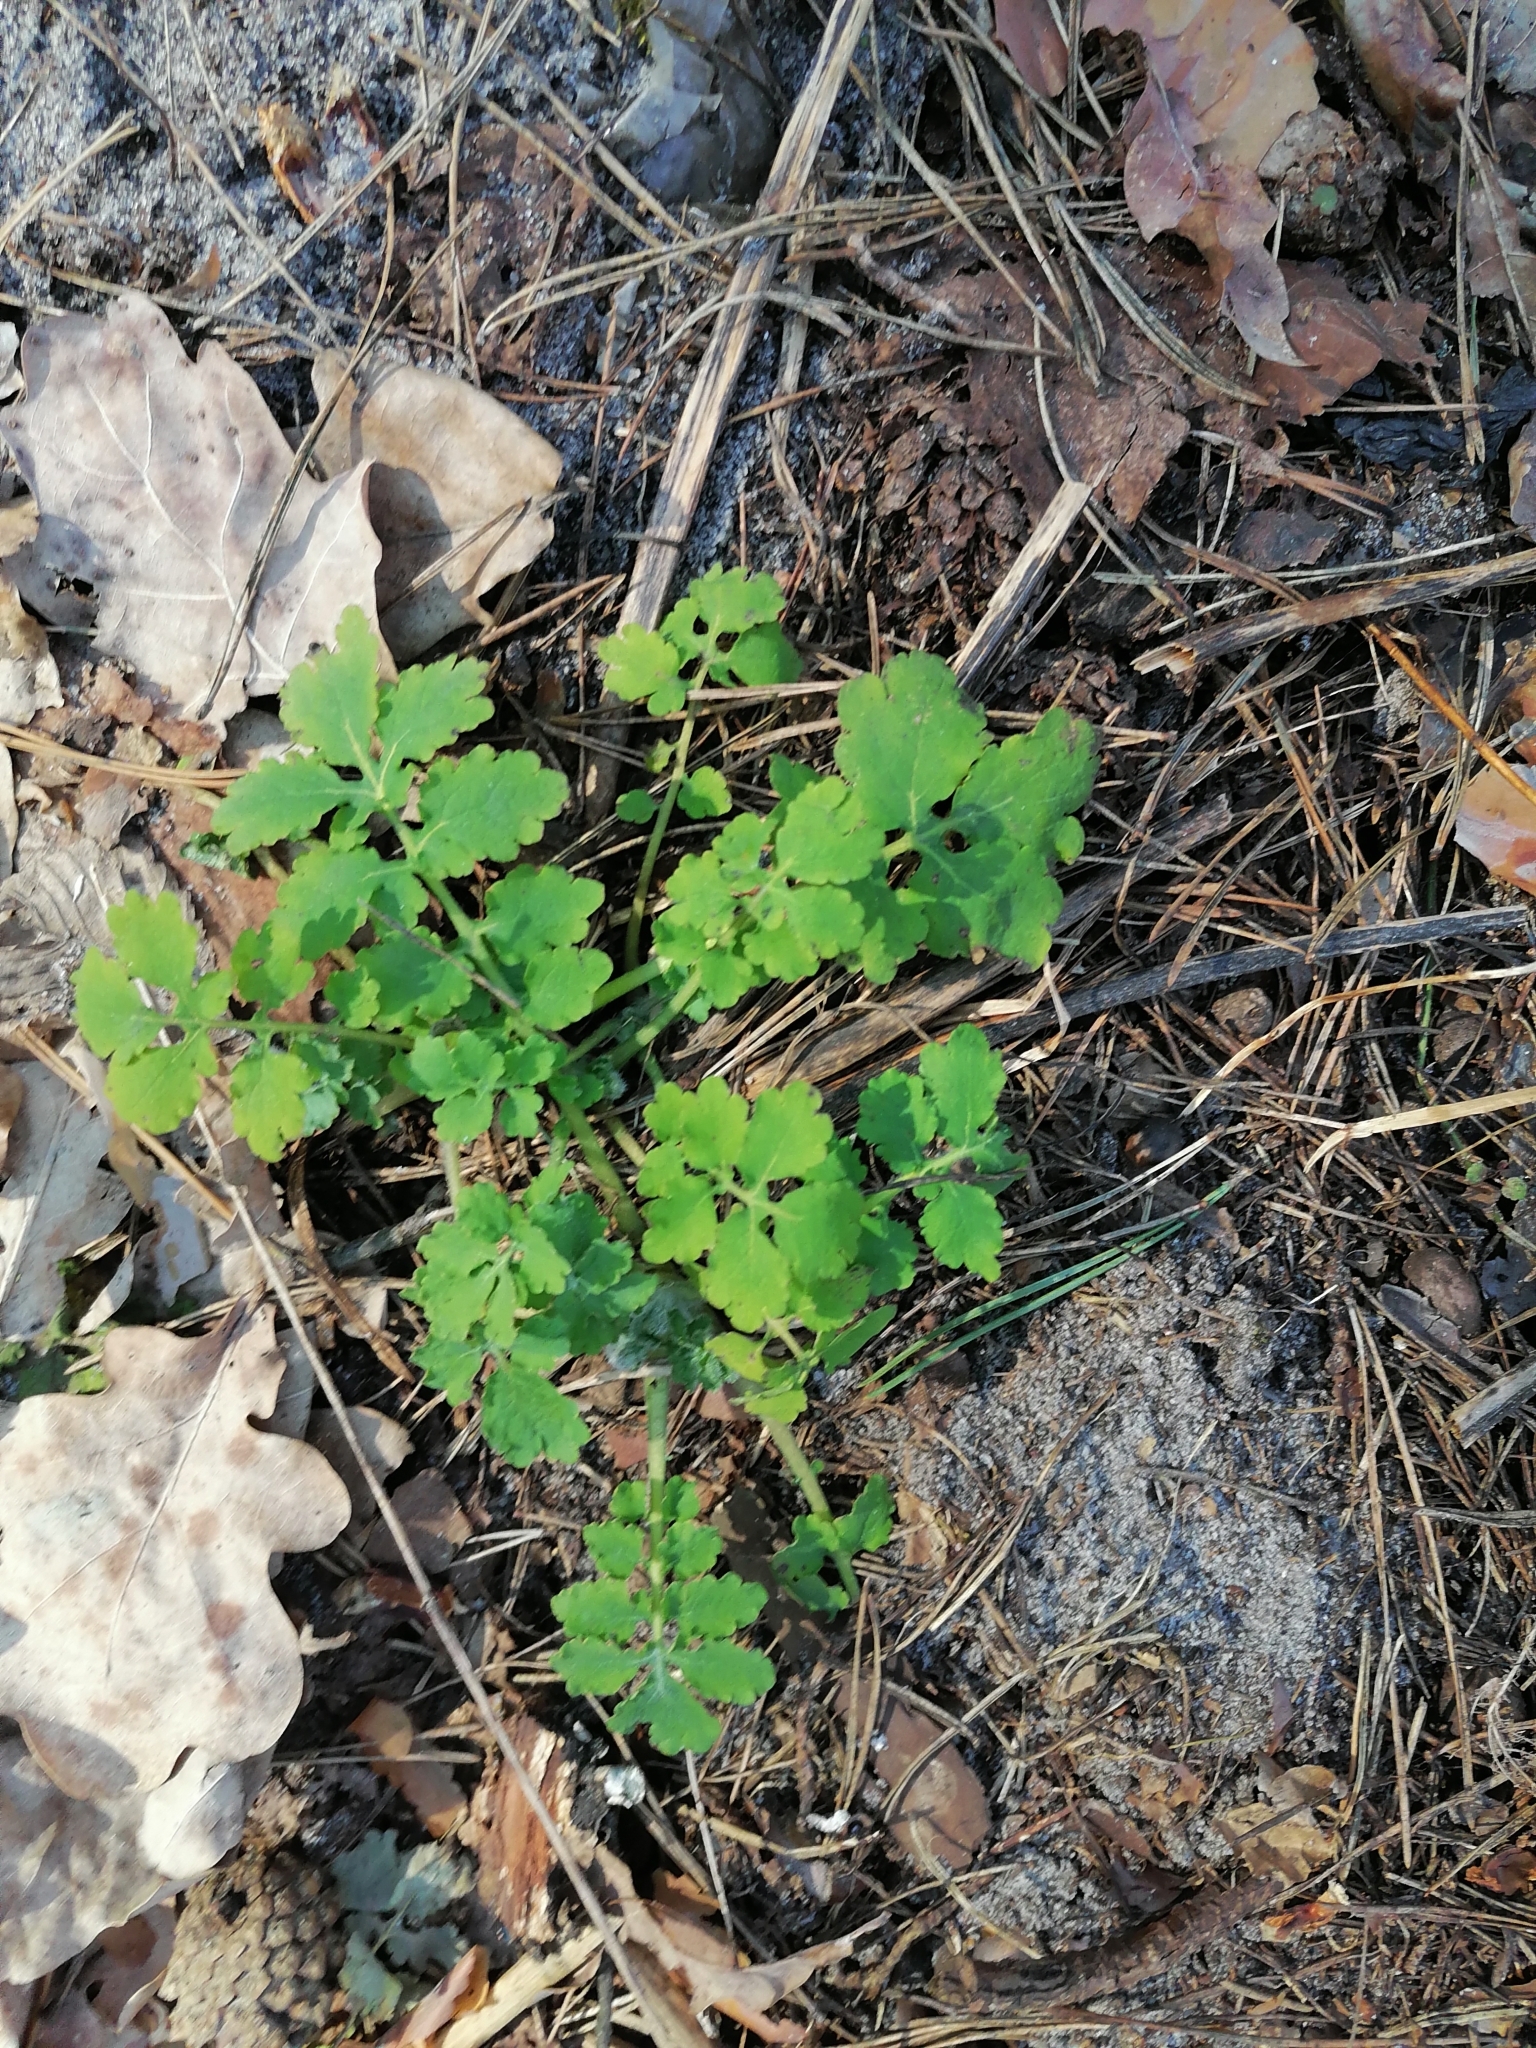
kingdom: Plantae
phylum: Tracheophyta
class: Magnoliopsida
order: Ranunculales
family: Papaveraceae
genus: Chelidonium
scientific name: Chelidonium majus
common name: Greater celandine
